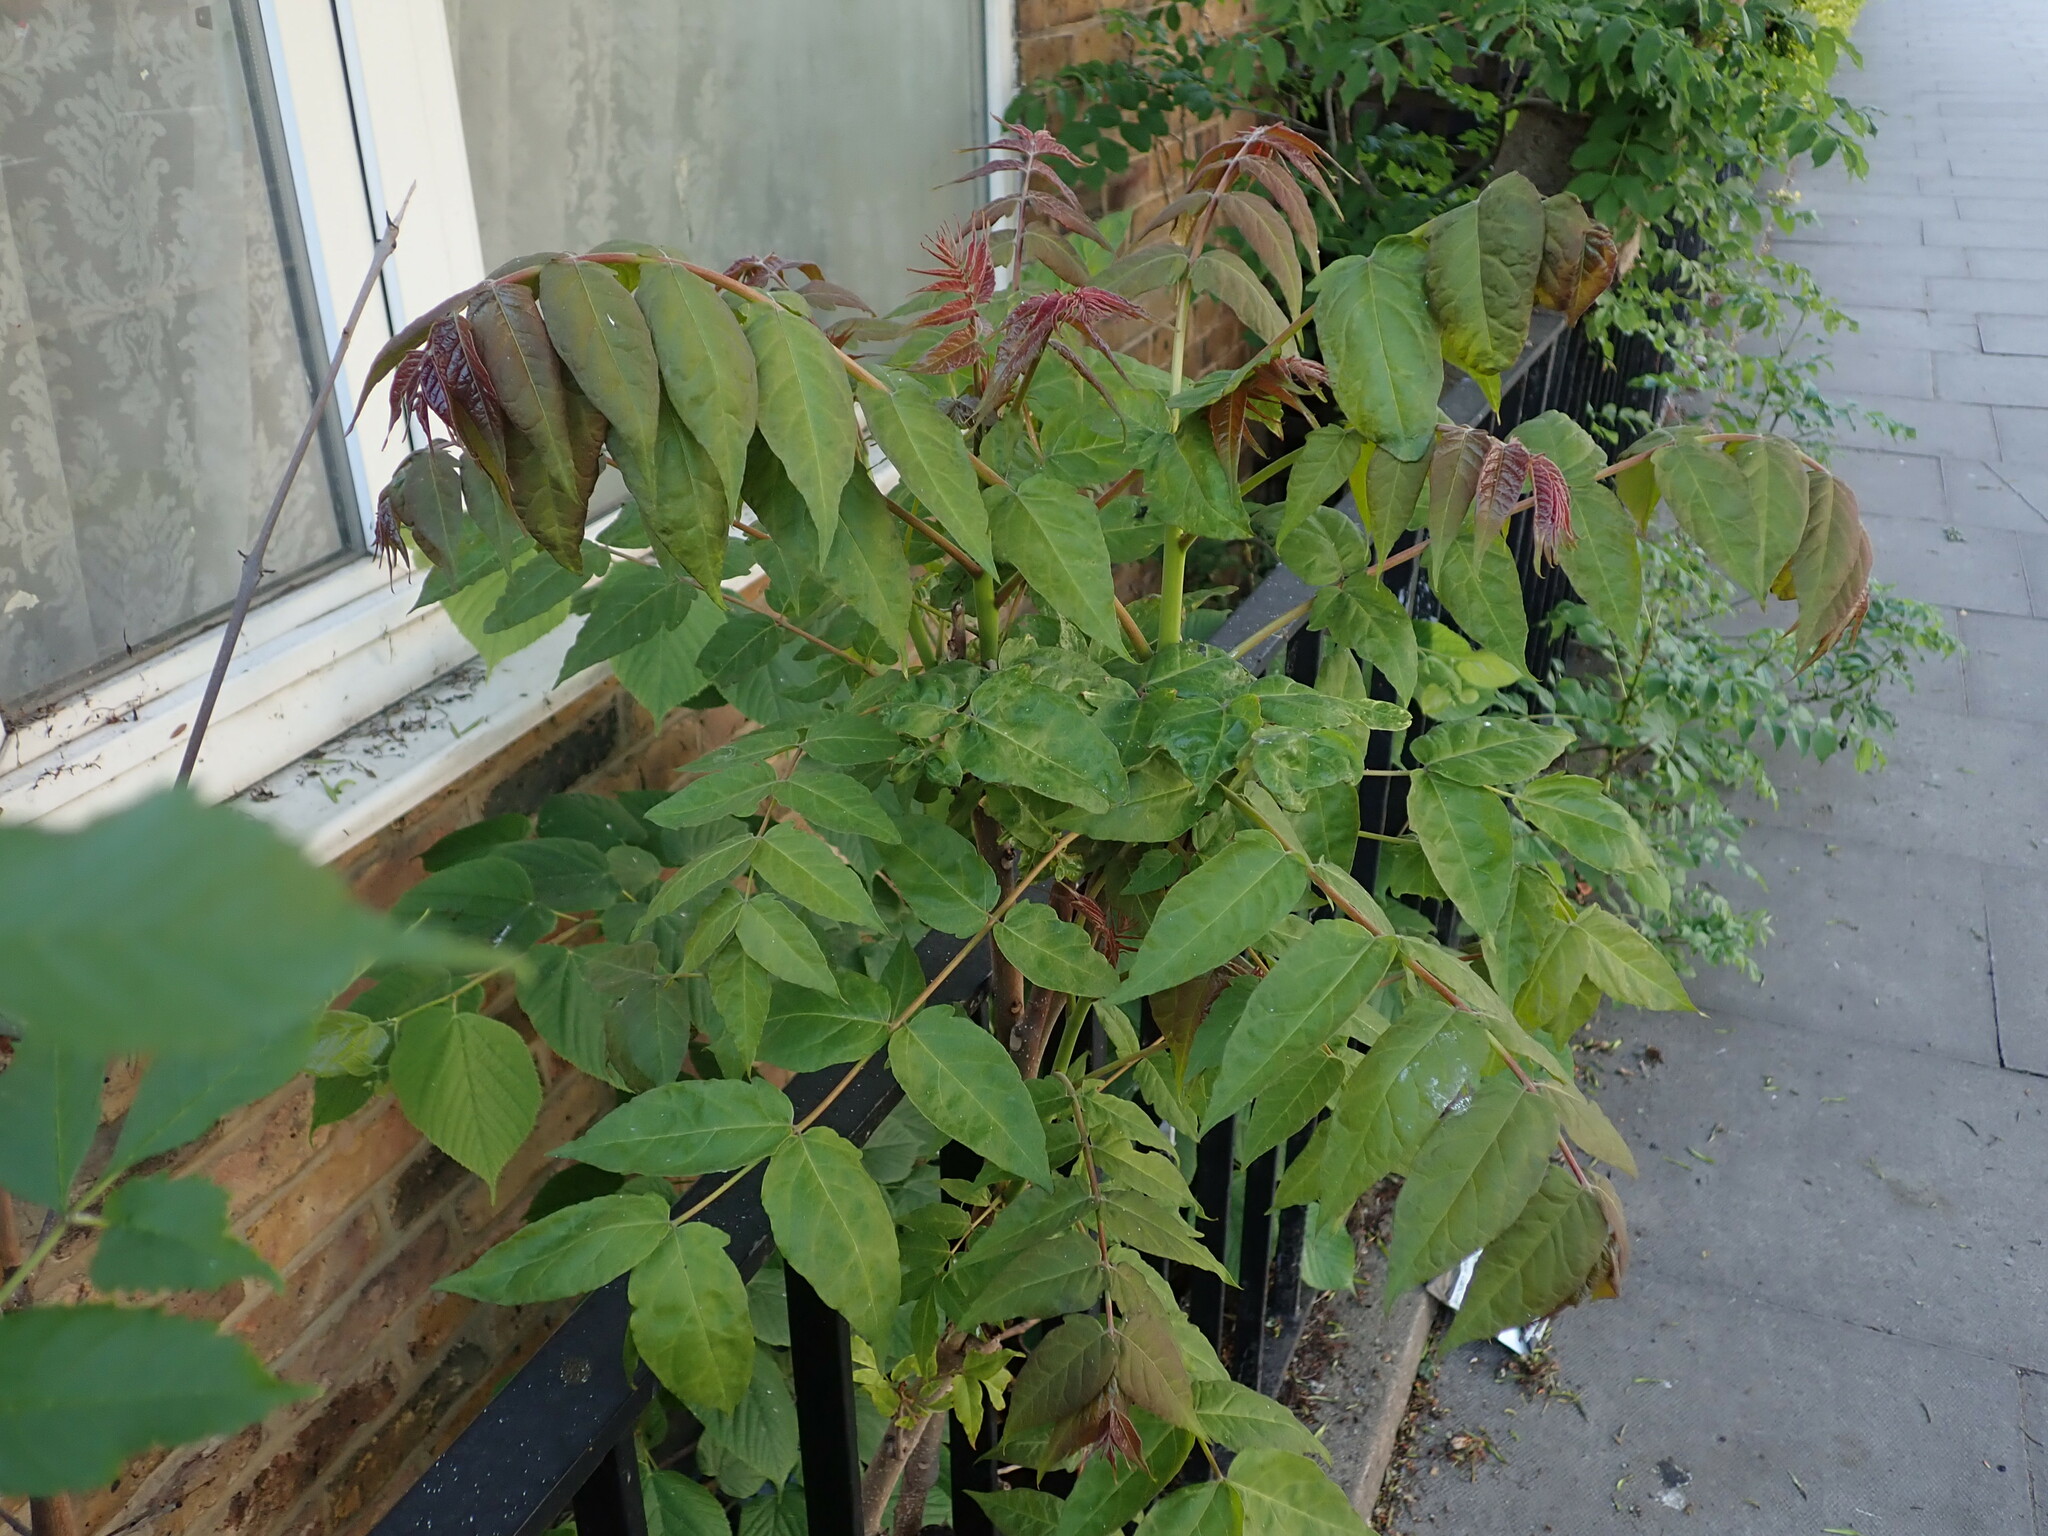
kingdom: Plantae
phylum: Tracheophyta
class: Magnoliopsida
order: Sapindales
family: Simaroubaceae
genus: Ailanthus
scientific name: Ailanthus altissima
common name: Tree-of-heaven
